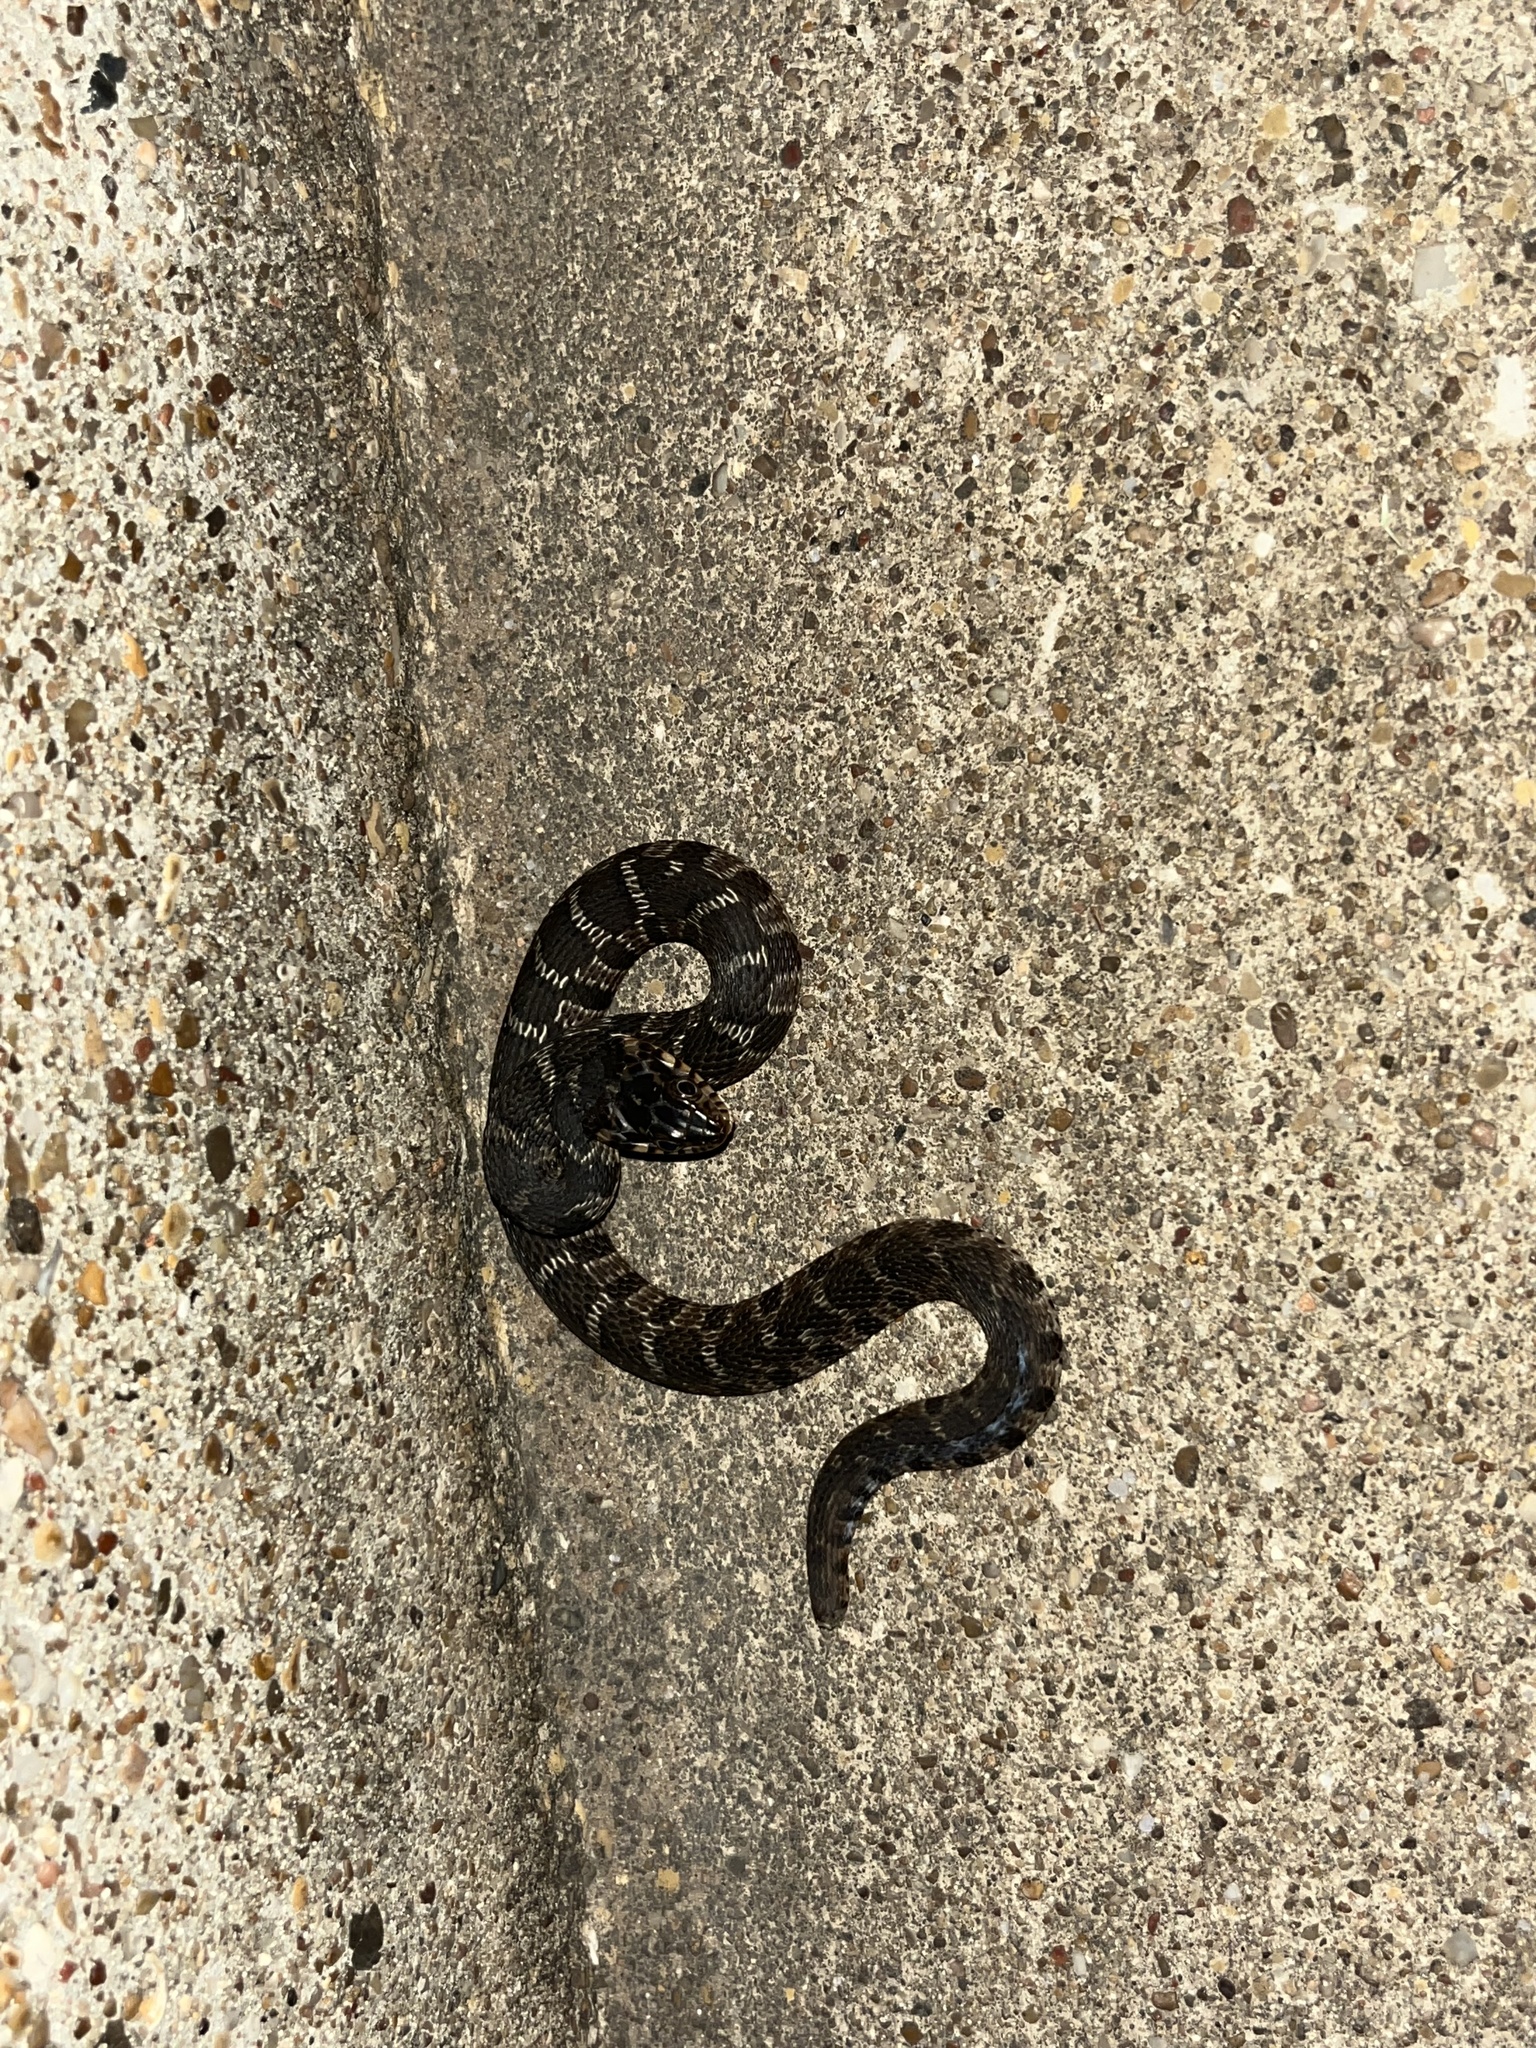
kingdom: Animalia
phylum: Chordata
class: Squamata
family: Colubridae
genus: Nerodia
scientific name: Nerodia erythrogaster
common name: Plainbelly water snake
